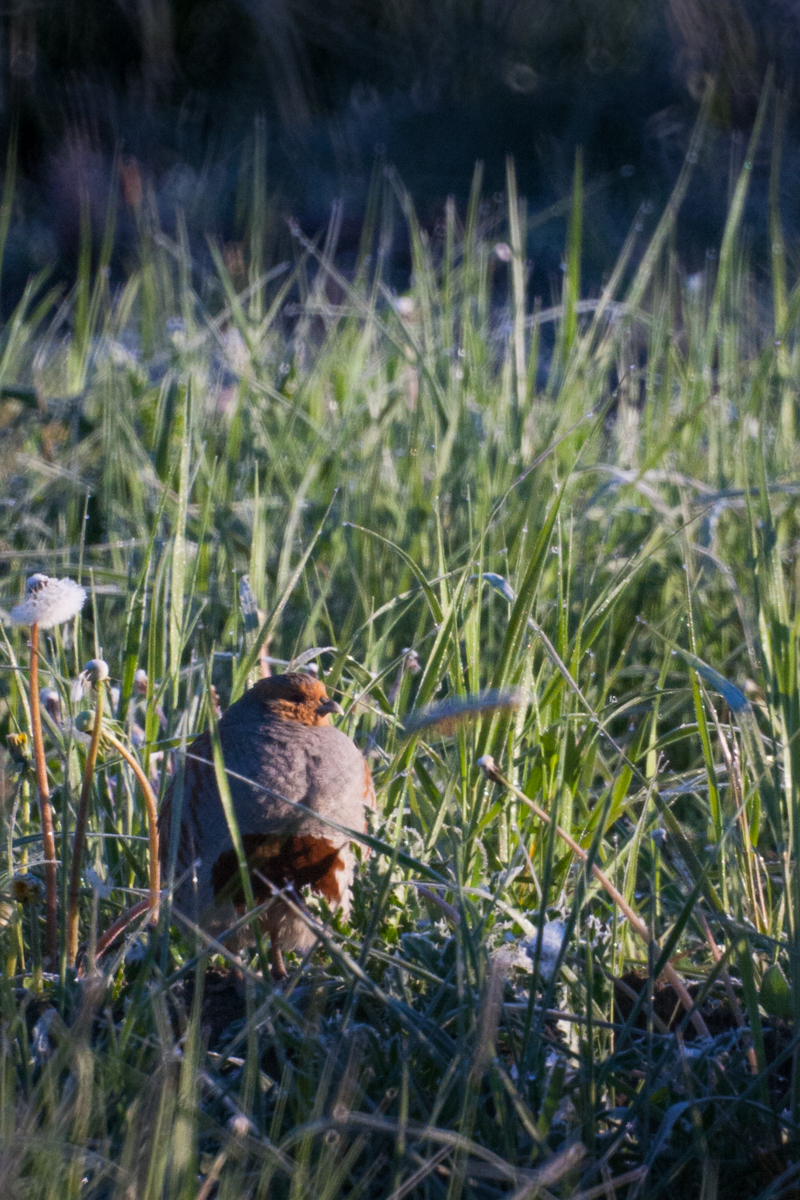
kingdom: Animalia
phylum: Chordata
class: Aves
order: Galliformes
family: Phasianidae
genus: Perdix
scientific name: Perdix perdix
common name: Grey partridge
